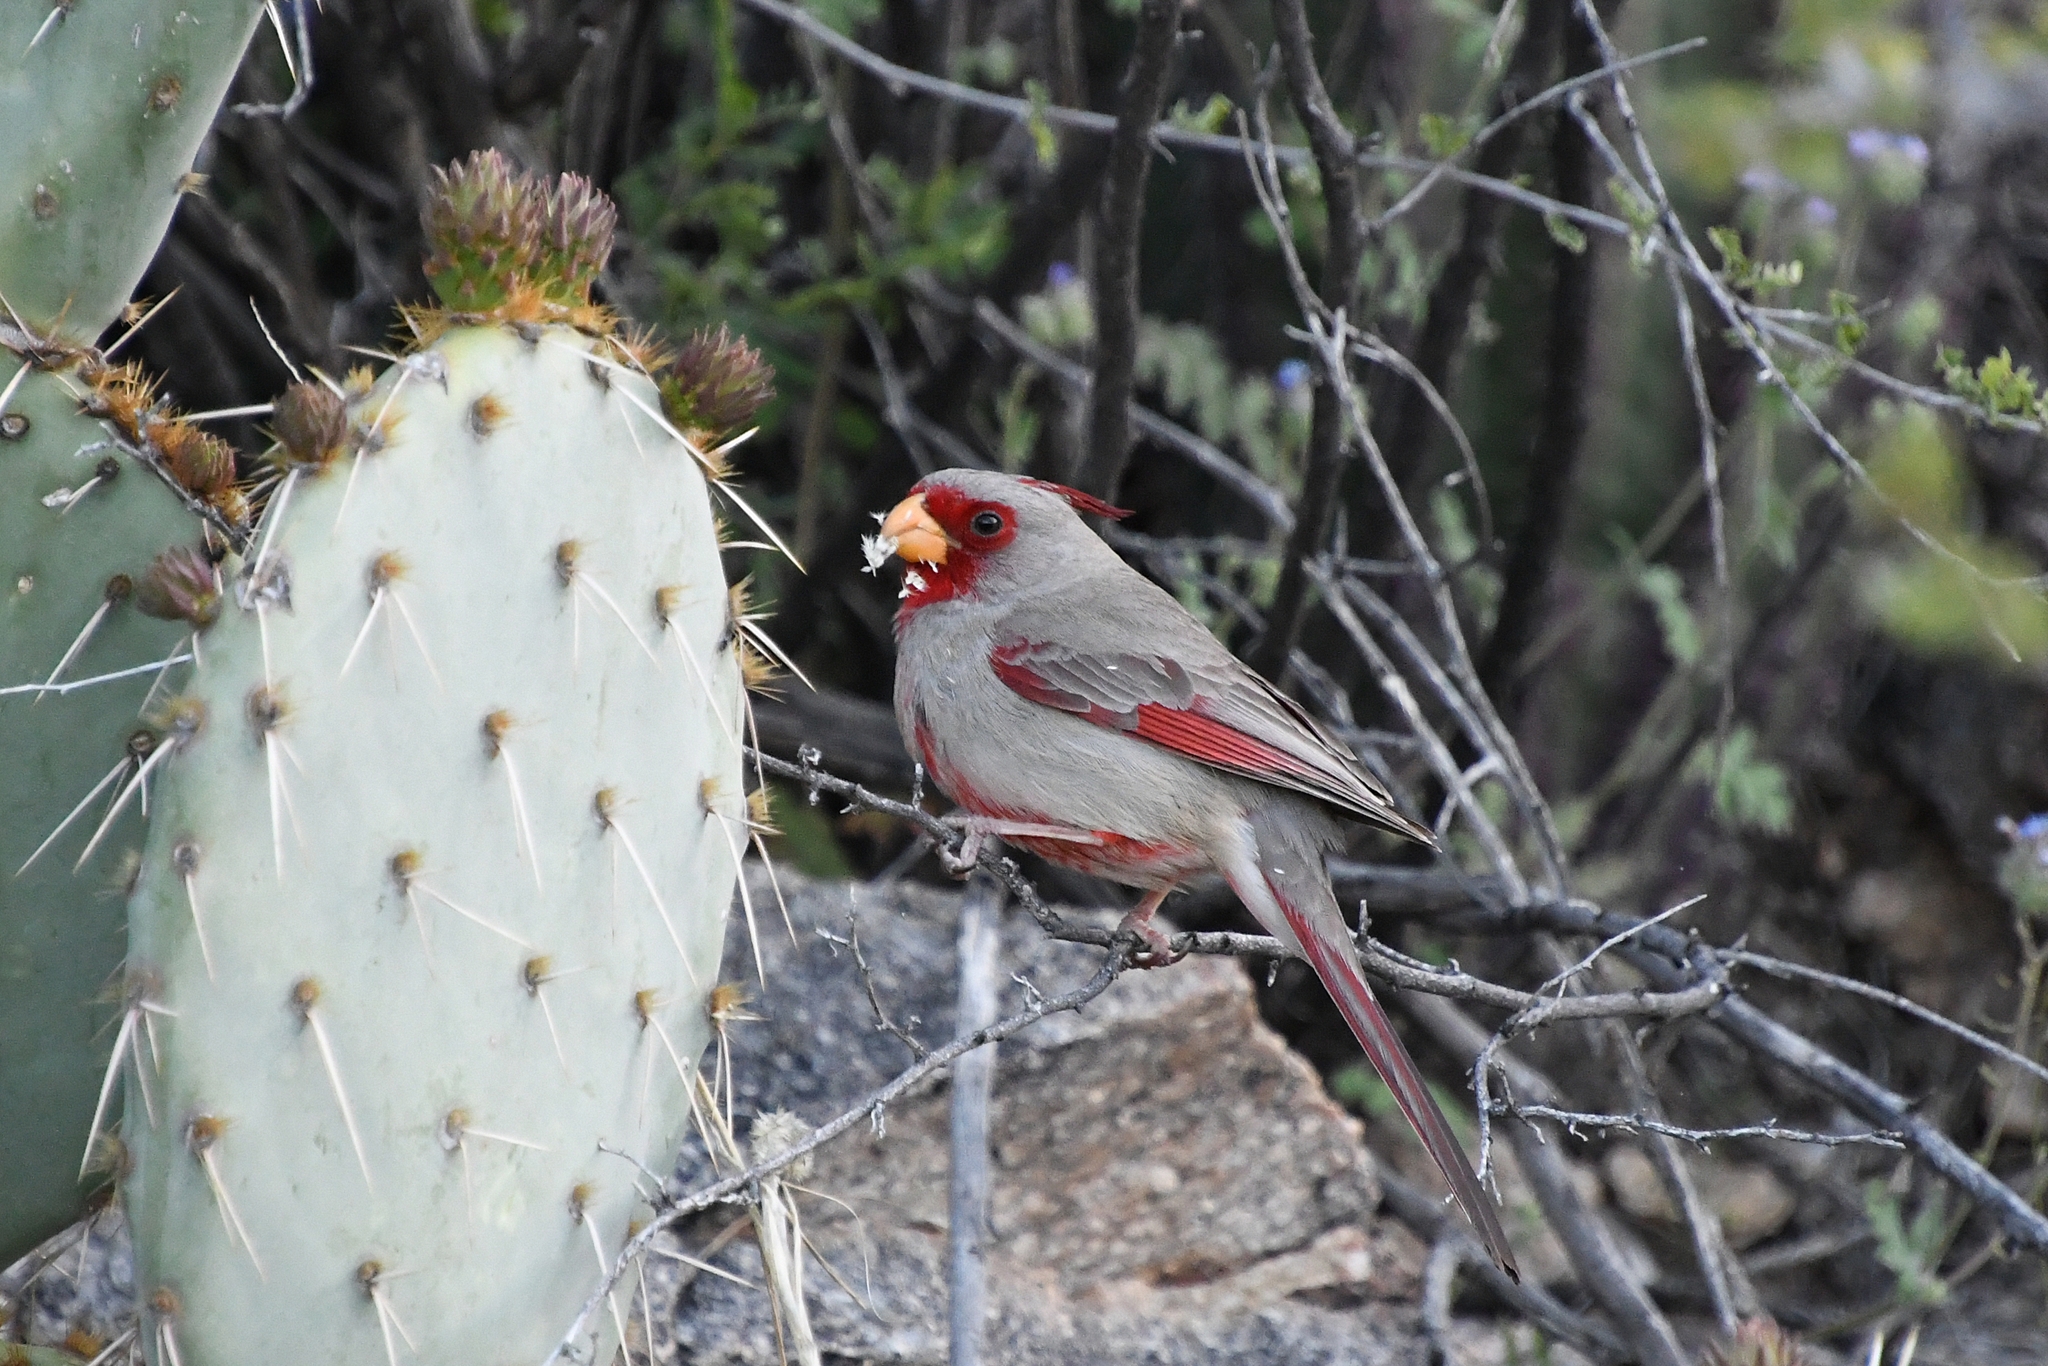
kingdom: Animalia
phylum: Chordata
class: Aves
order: Passeriformes
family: Cardinalidae
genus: Cardinalis
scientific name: Cardinalis sinuatus
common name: Pyrrhuloxia
